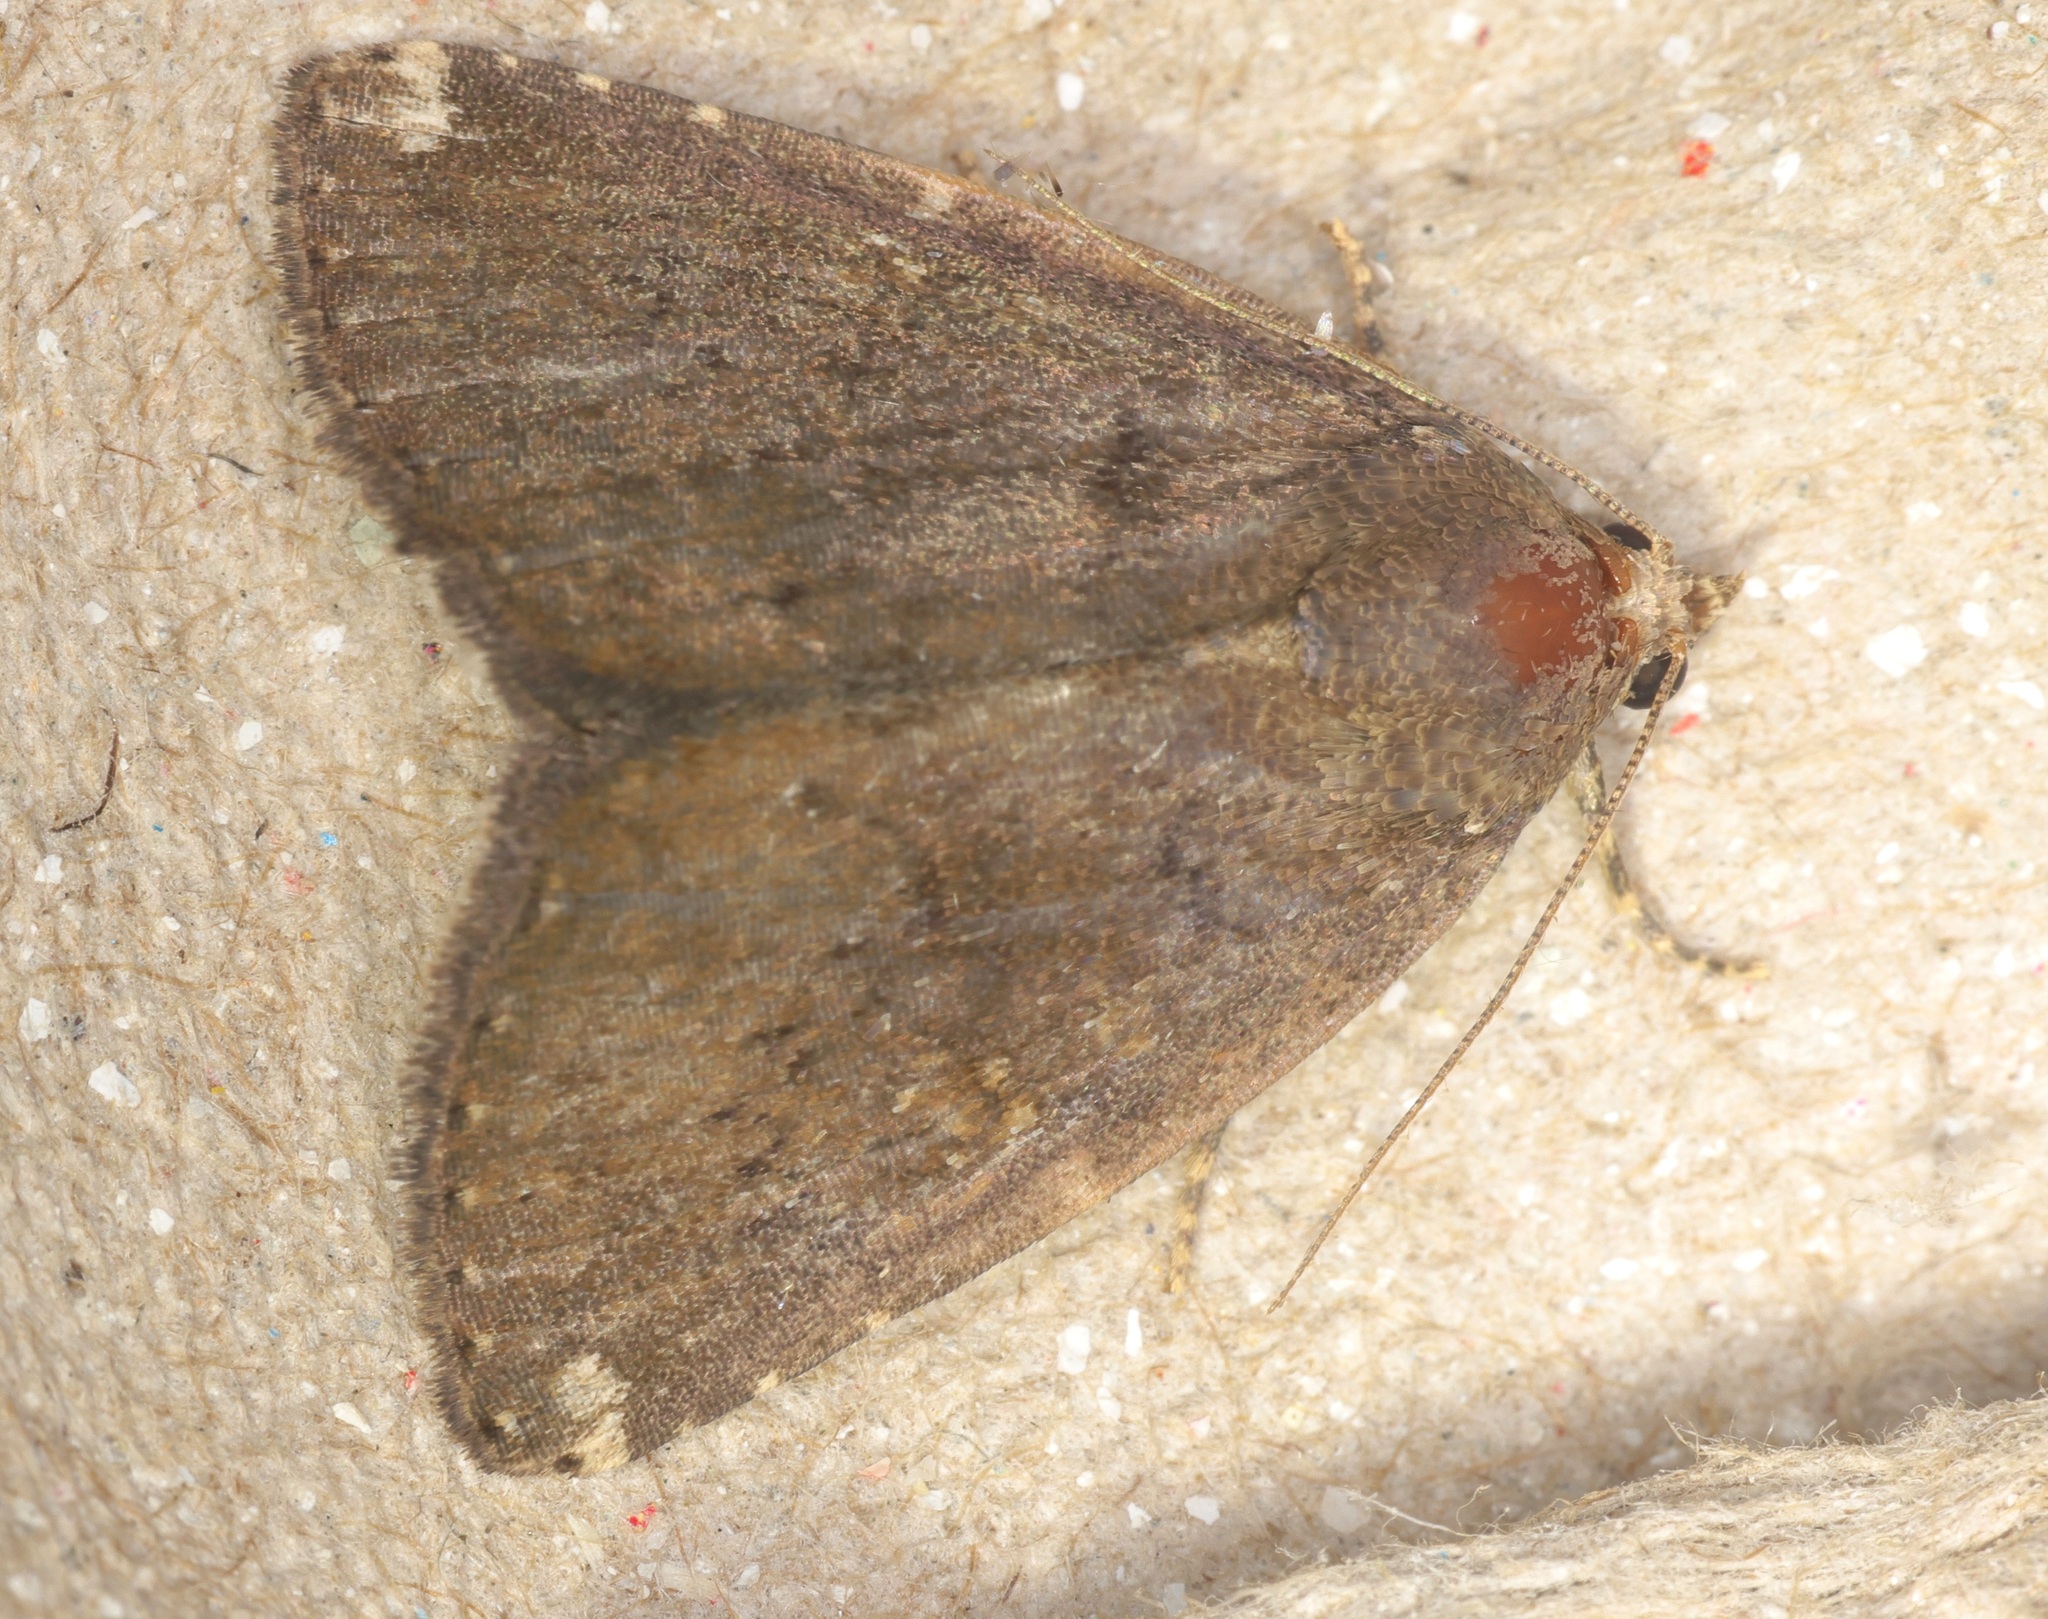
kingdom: Animalia
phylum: Arthropoda
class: Insecta
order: Lepidoptera
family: Noctuidae
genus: Amyna
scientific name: Amyna axis
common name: Cutworm
